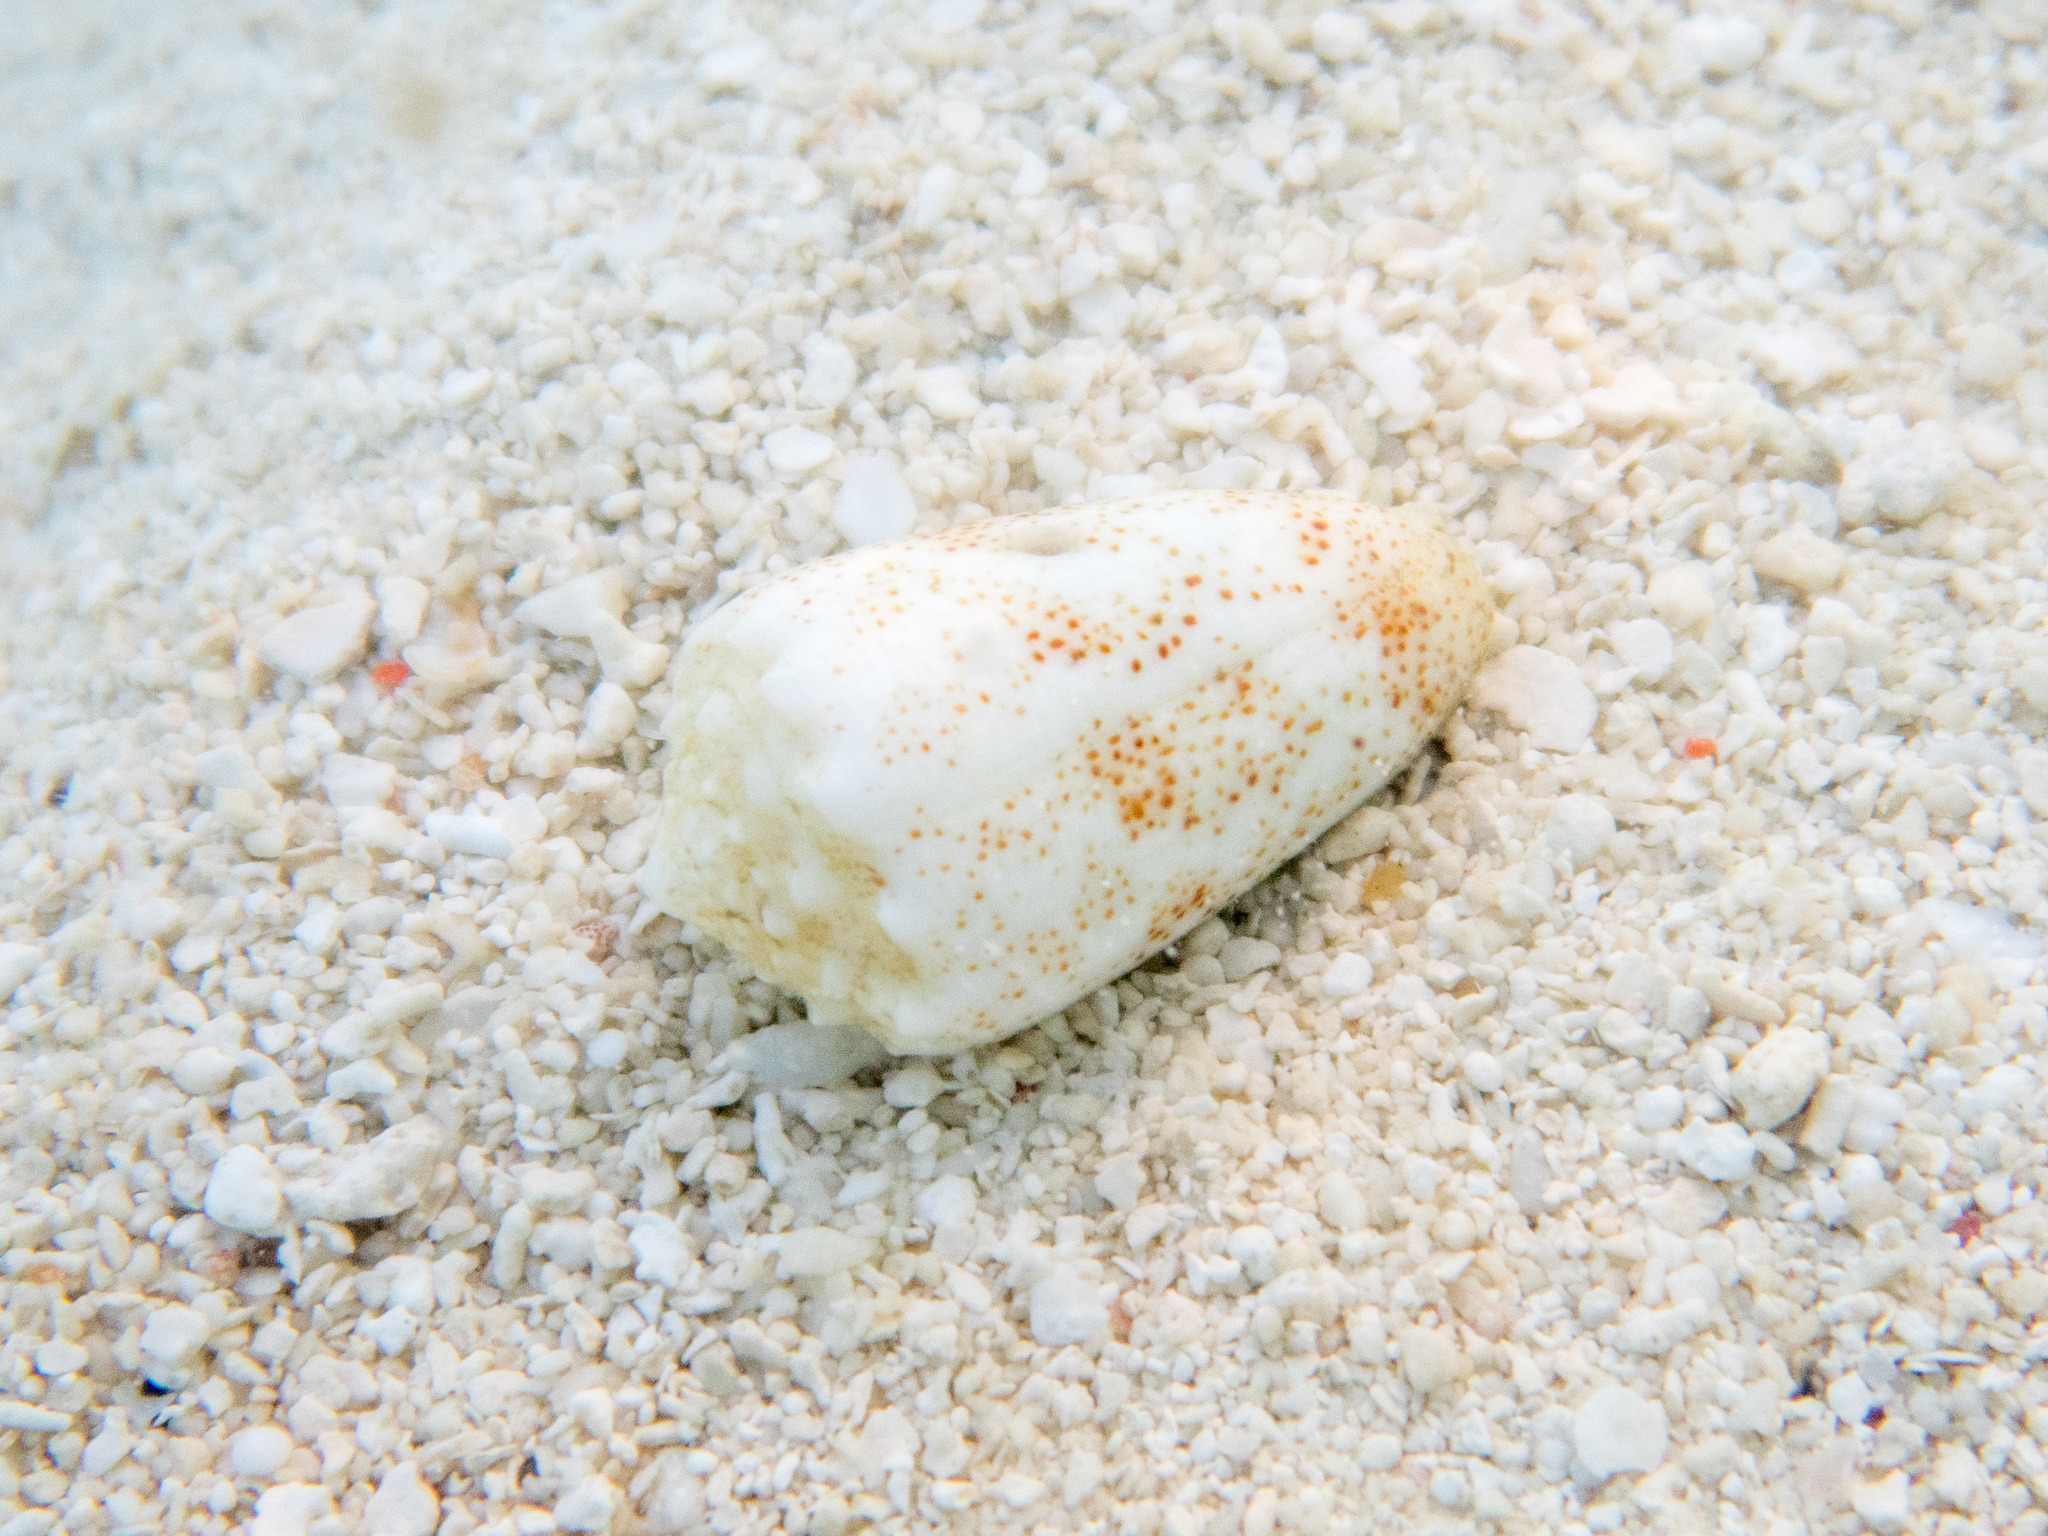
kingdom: Animalia
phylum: Mollusca
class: Gastropoda
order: Neogastropoda
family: Conidae
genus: Conus
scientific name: Conus arenatus
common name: Sand-dusted cone
